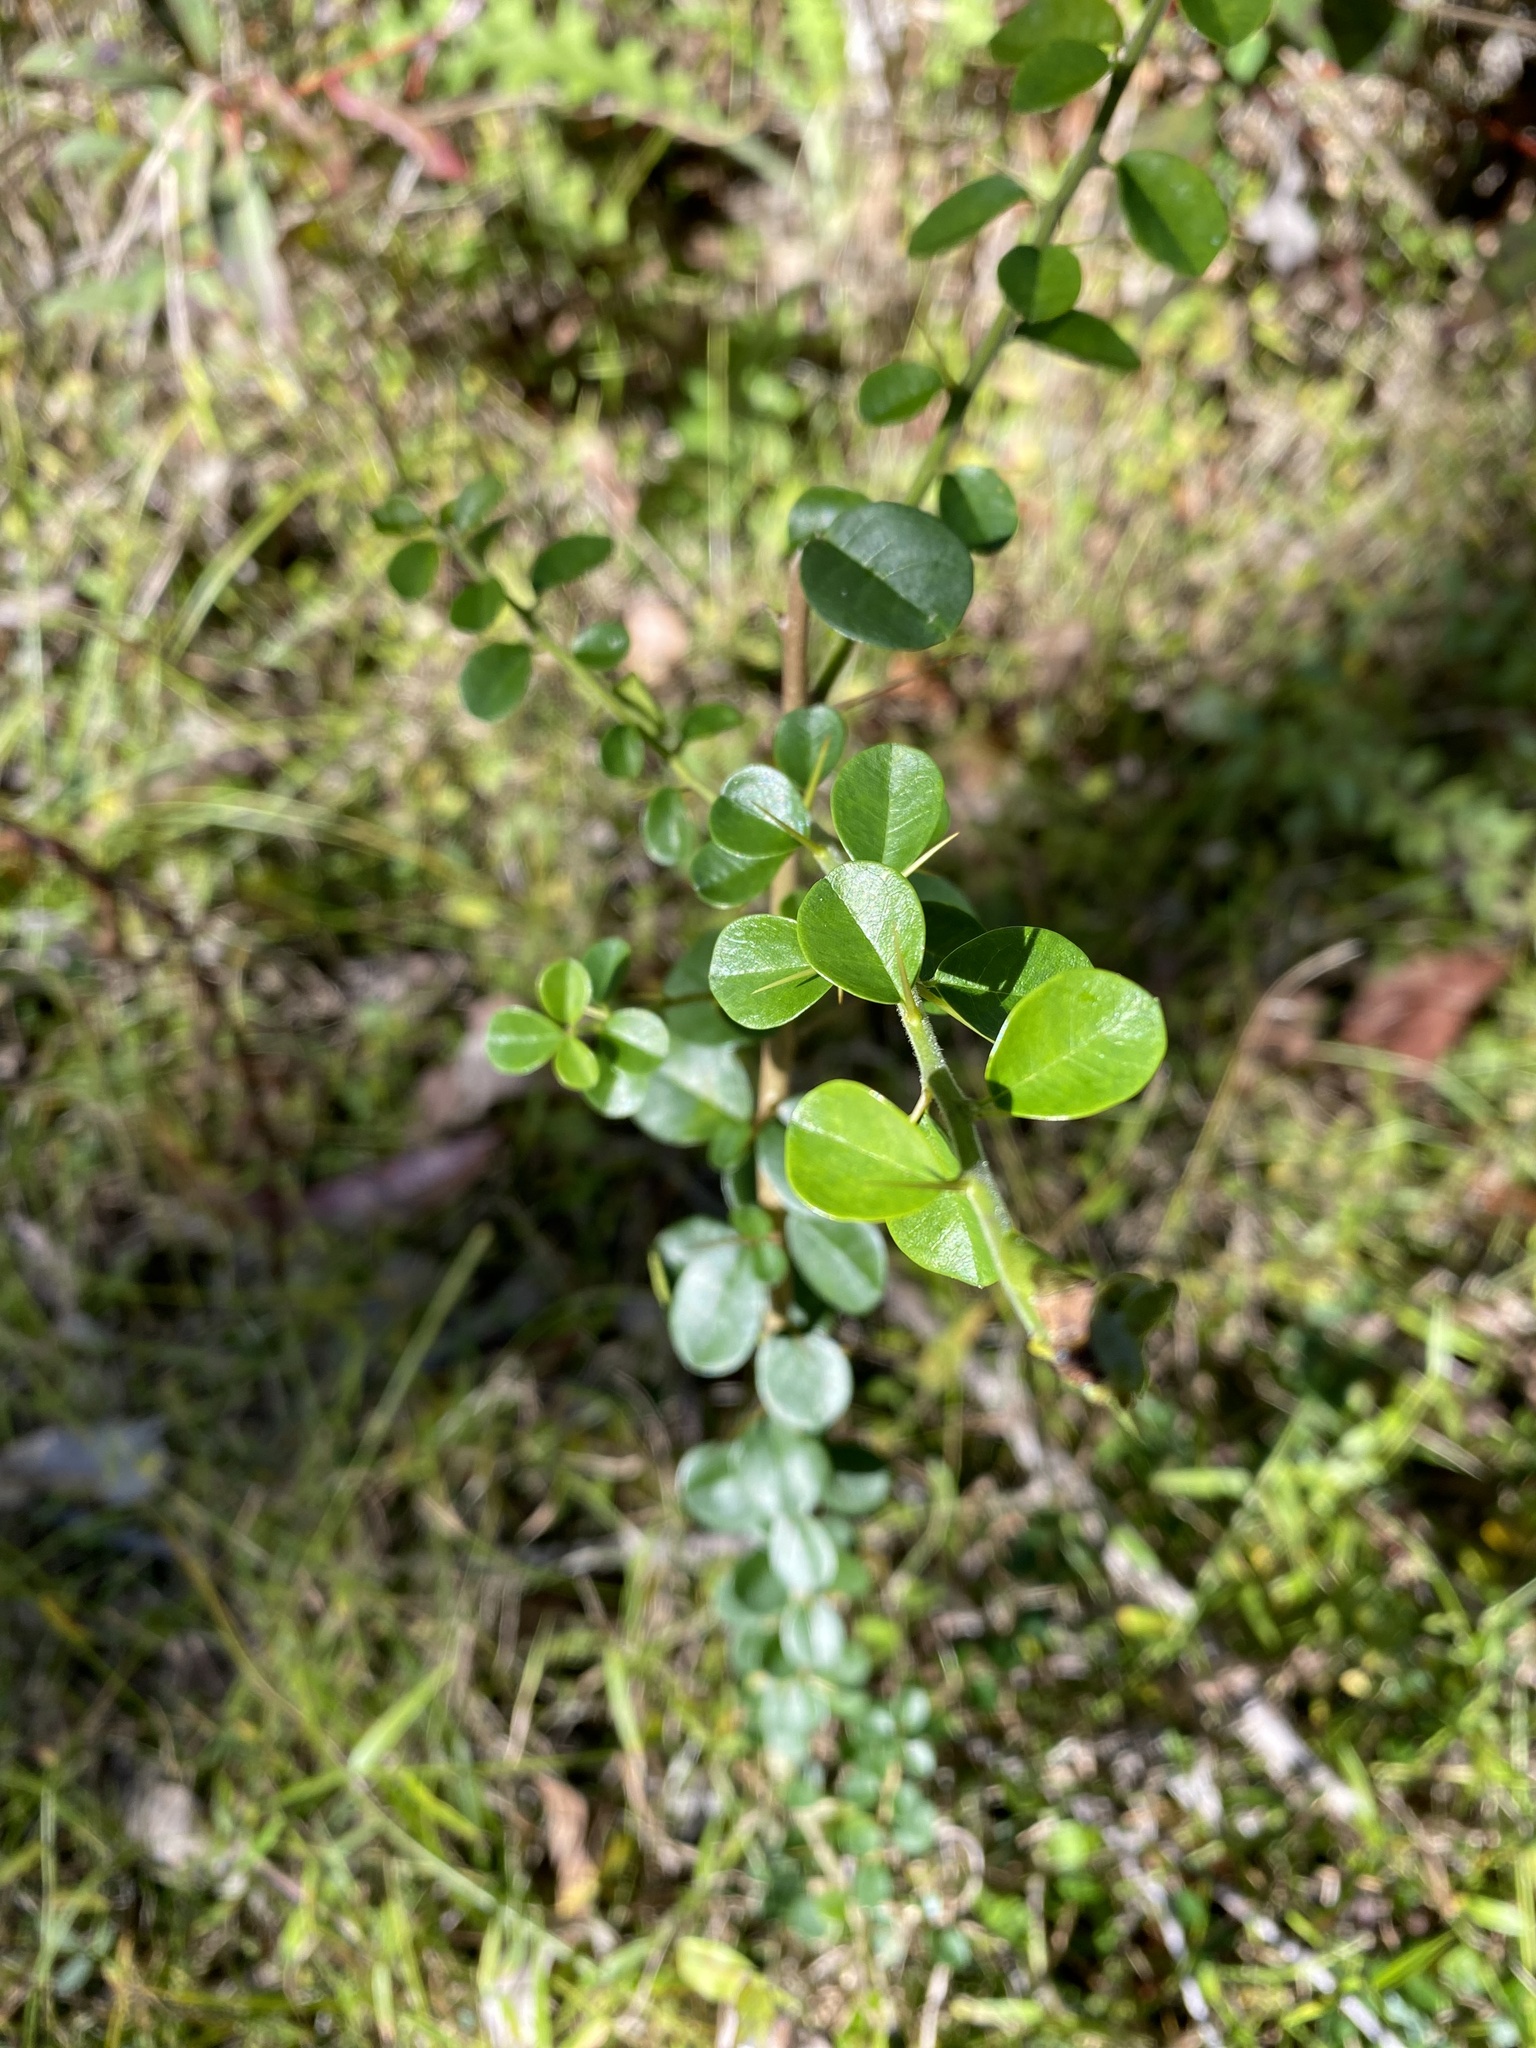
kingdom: Plantae
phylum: Tracheophyta
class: Magnoliopsida
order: Rosales
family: Moraceae
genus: Maclura
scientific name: Maclura cochinchinensis
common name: Cockspurthorn
